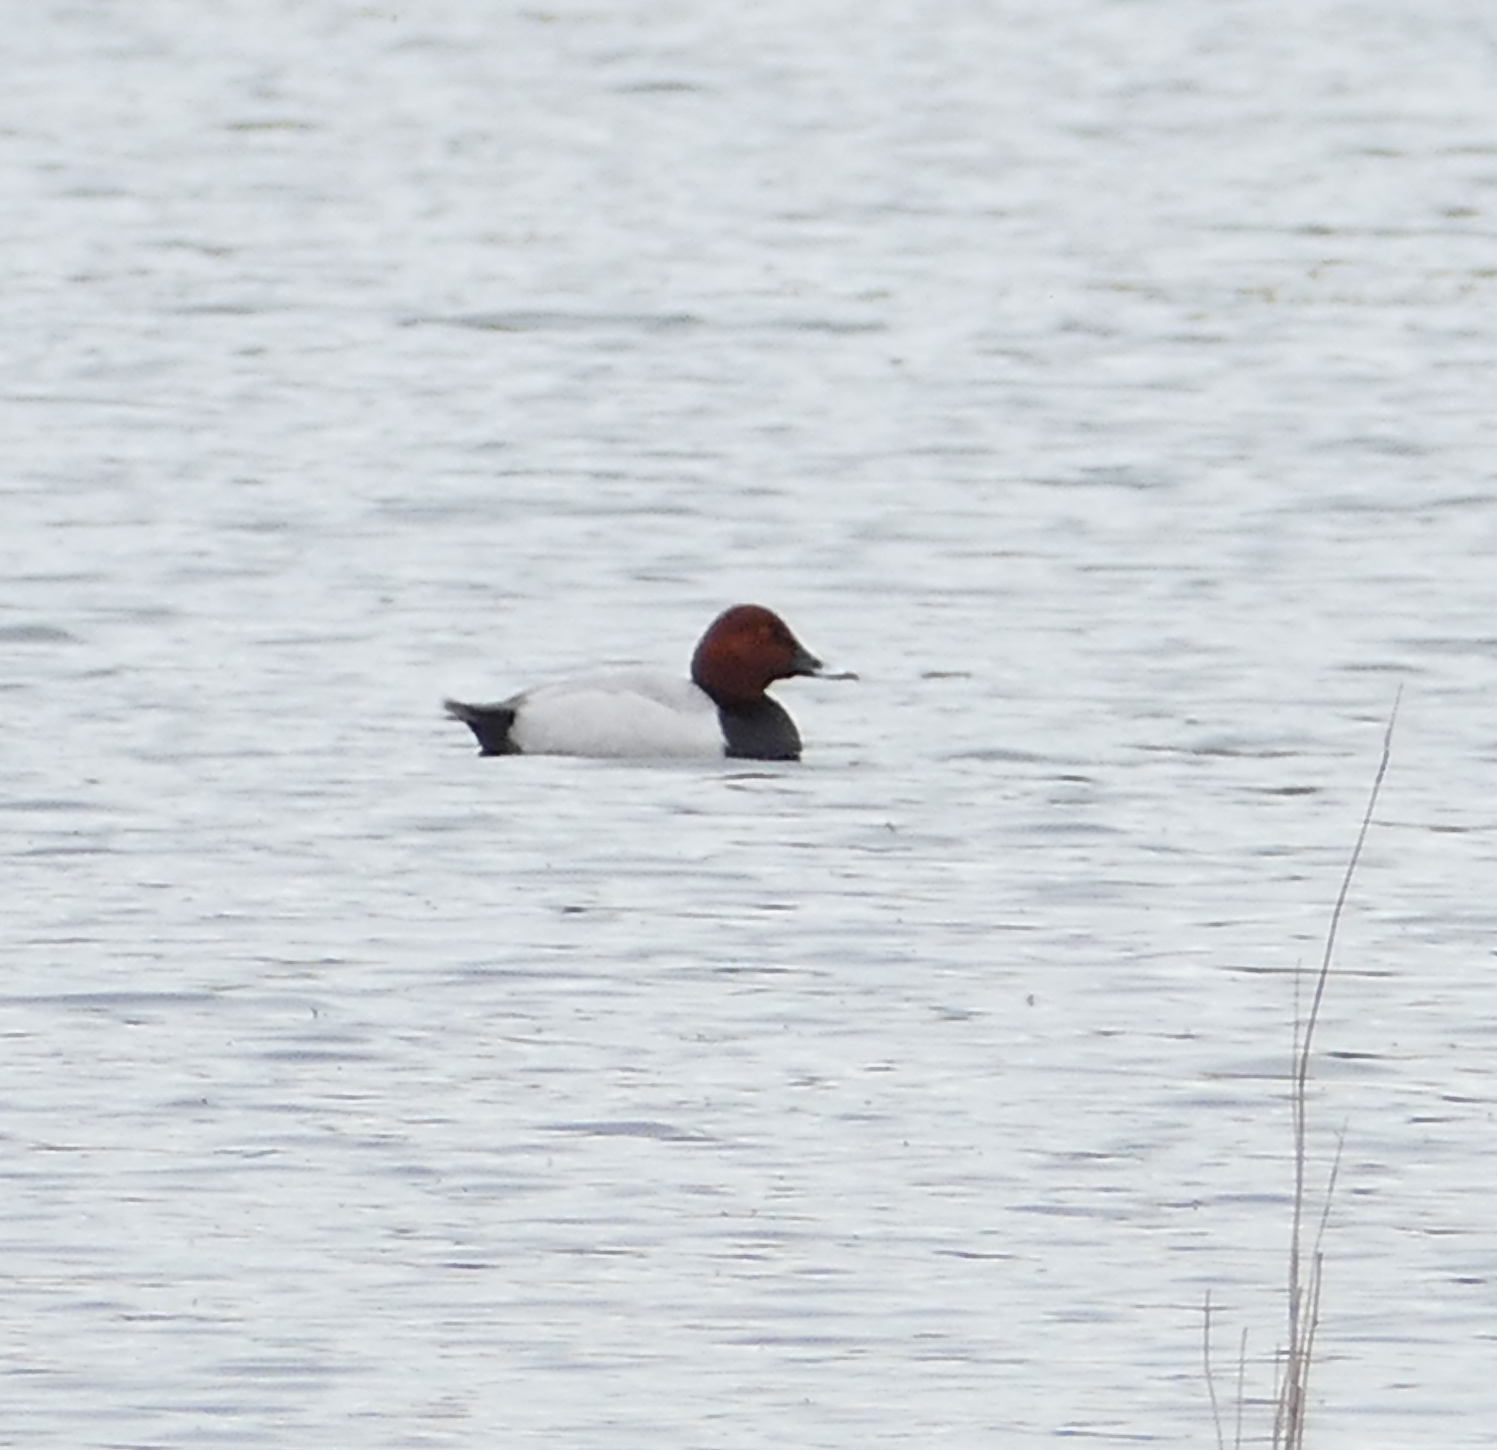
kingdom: Animalia
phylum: Chordata
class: Aves
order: Anseriformes
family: Anatidae
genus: Aythya
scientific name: Aythya ferina
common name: Common pochard
